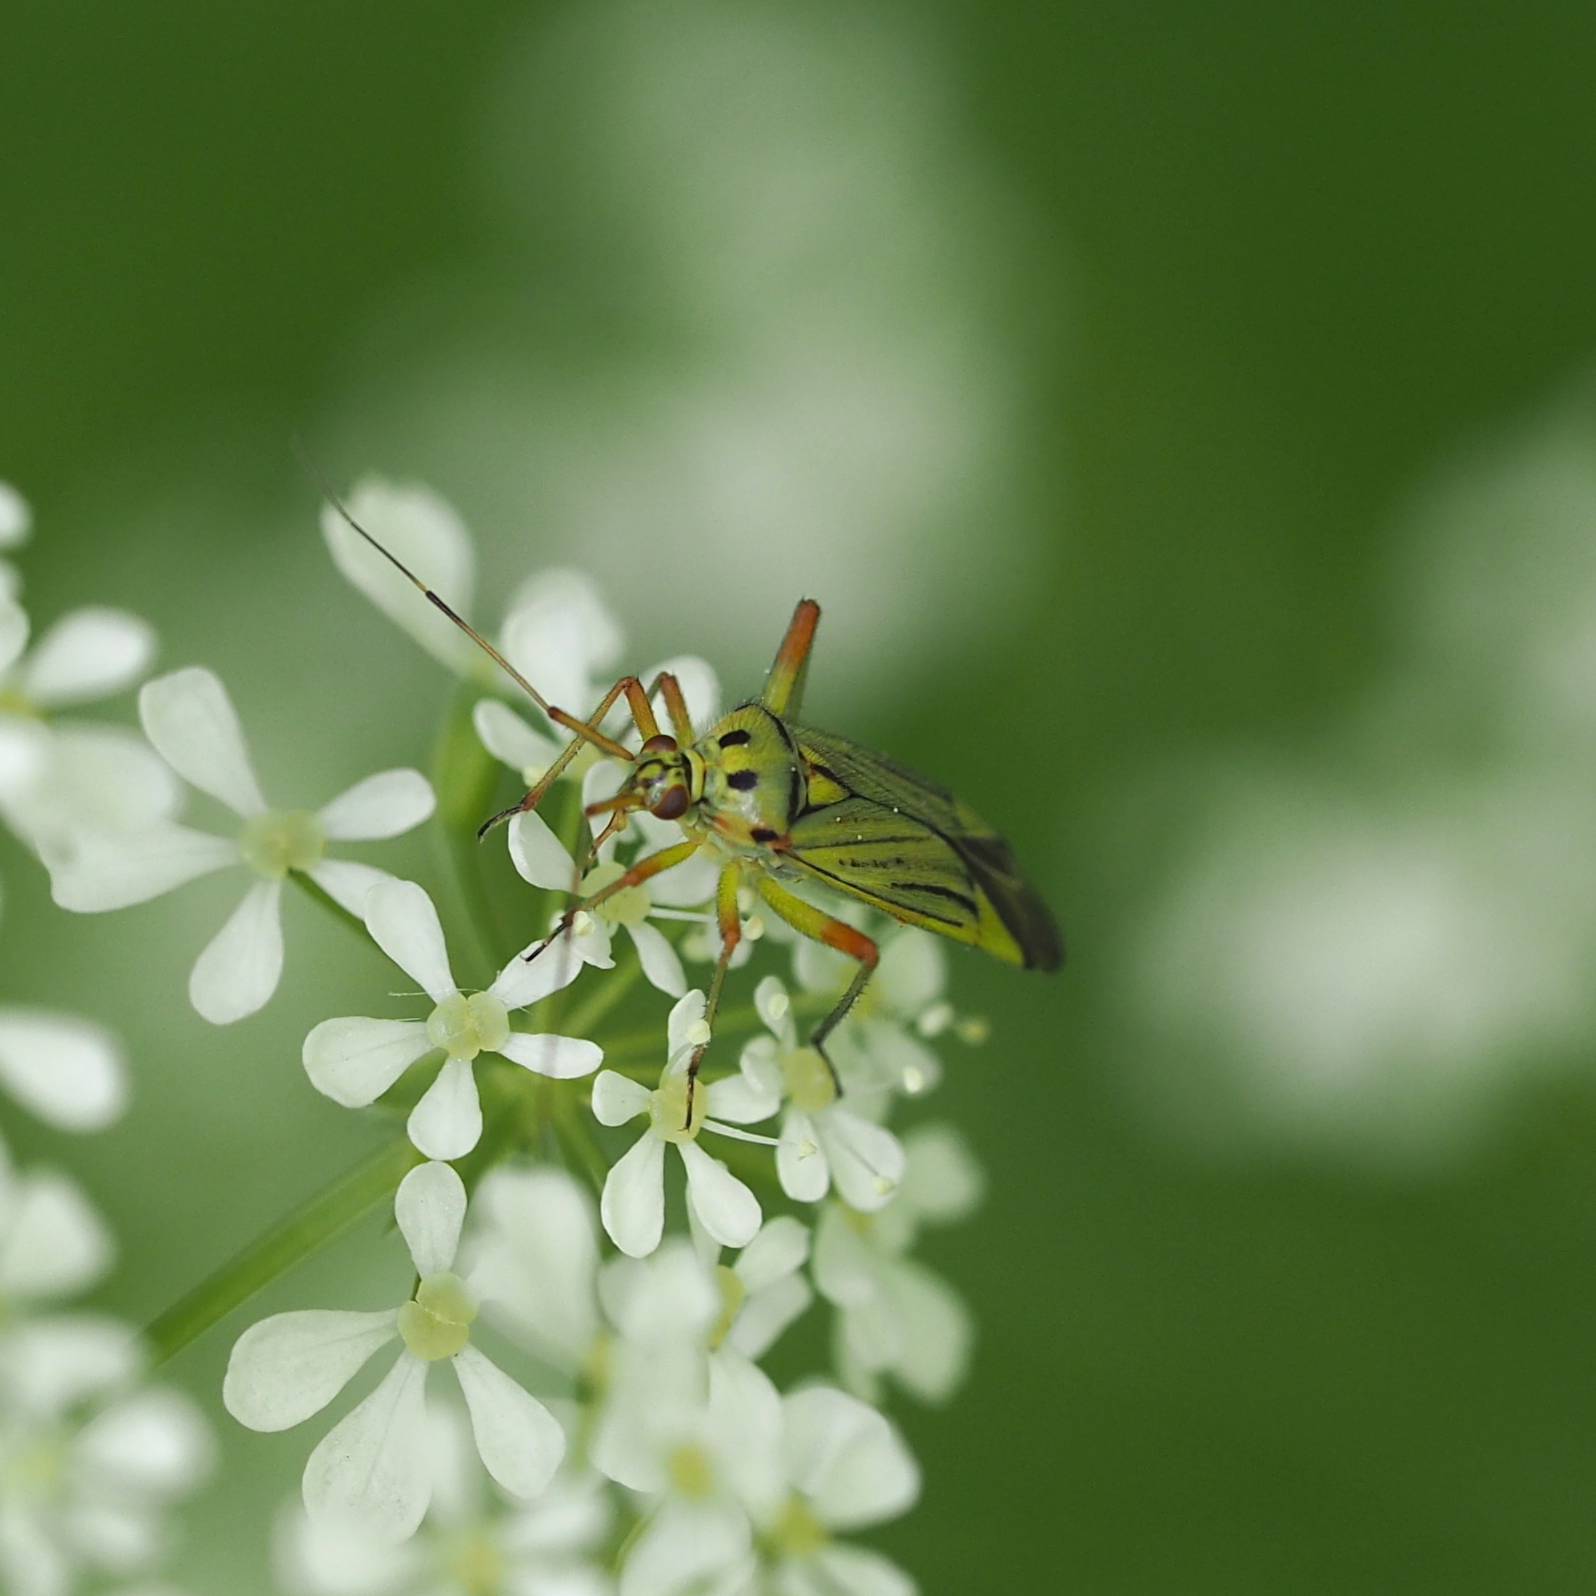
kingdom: Animalia
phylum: Arthropoda
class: Insecta
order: Hemiptera
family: Miridae
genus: Mermitelocerus
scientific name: Mermitelocerus schmidtii
